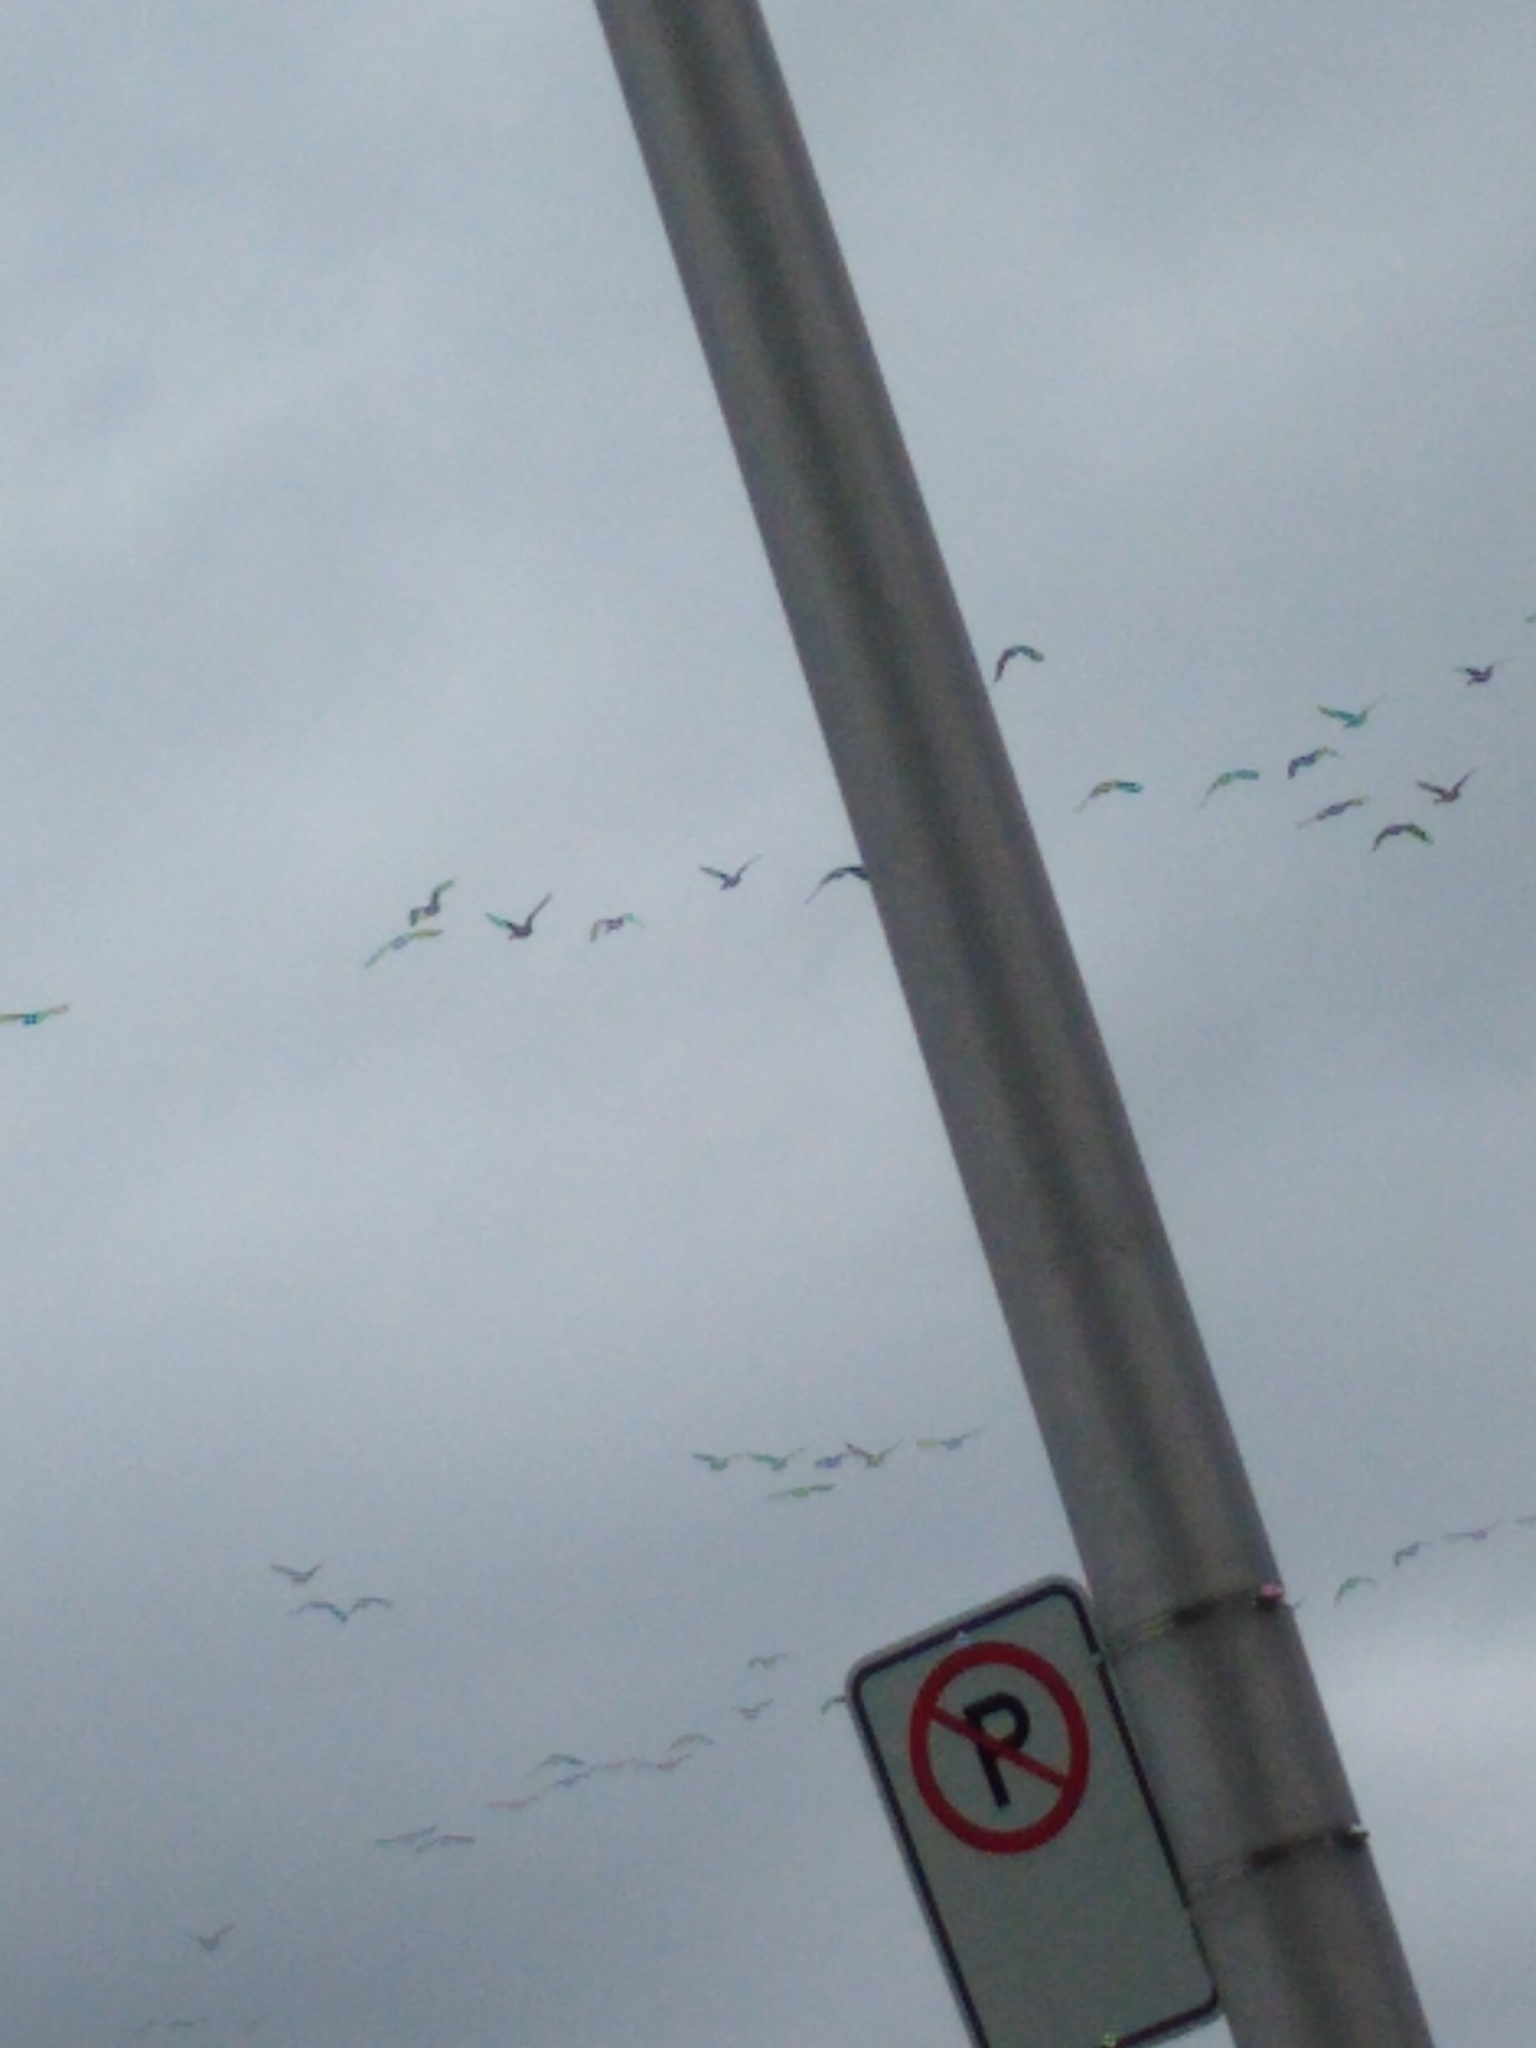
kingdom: Animalia
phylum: Chordata
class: Aves
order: Anseriformes
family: Anatidae
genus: Branta
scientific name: Branta canadensis
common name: Canada goose
